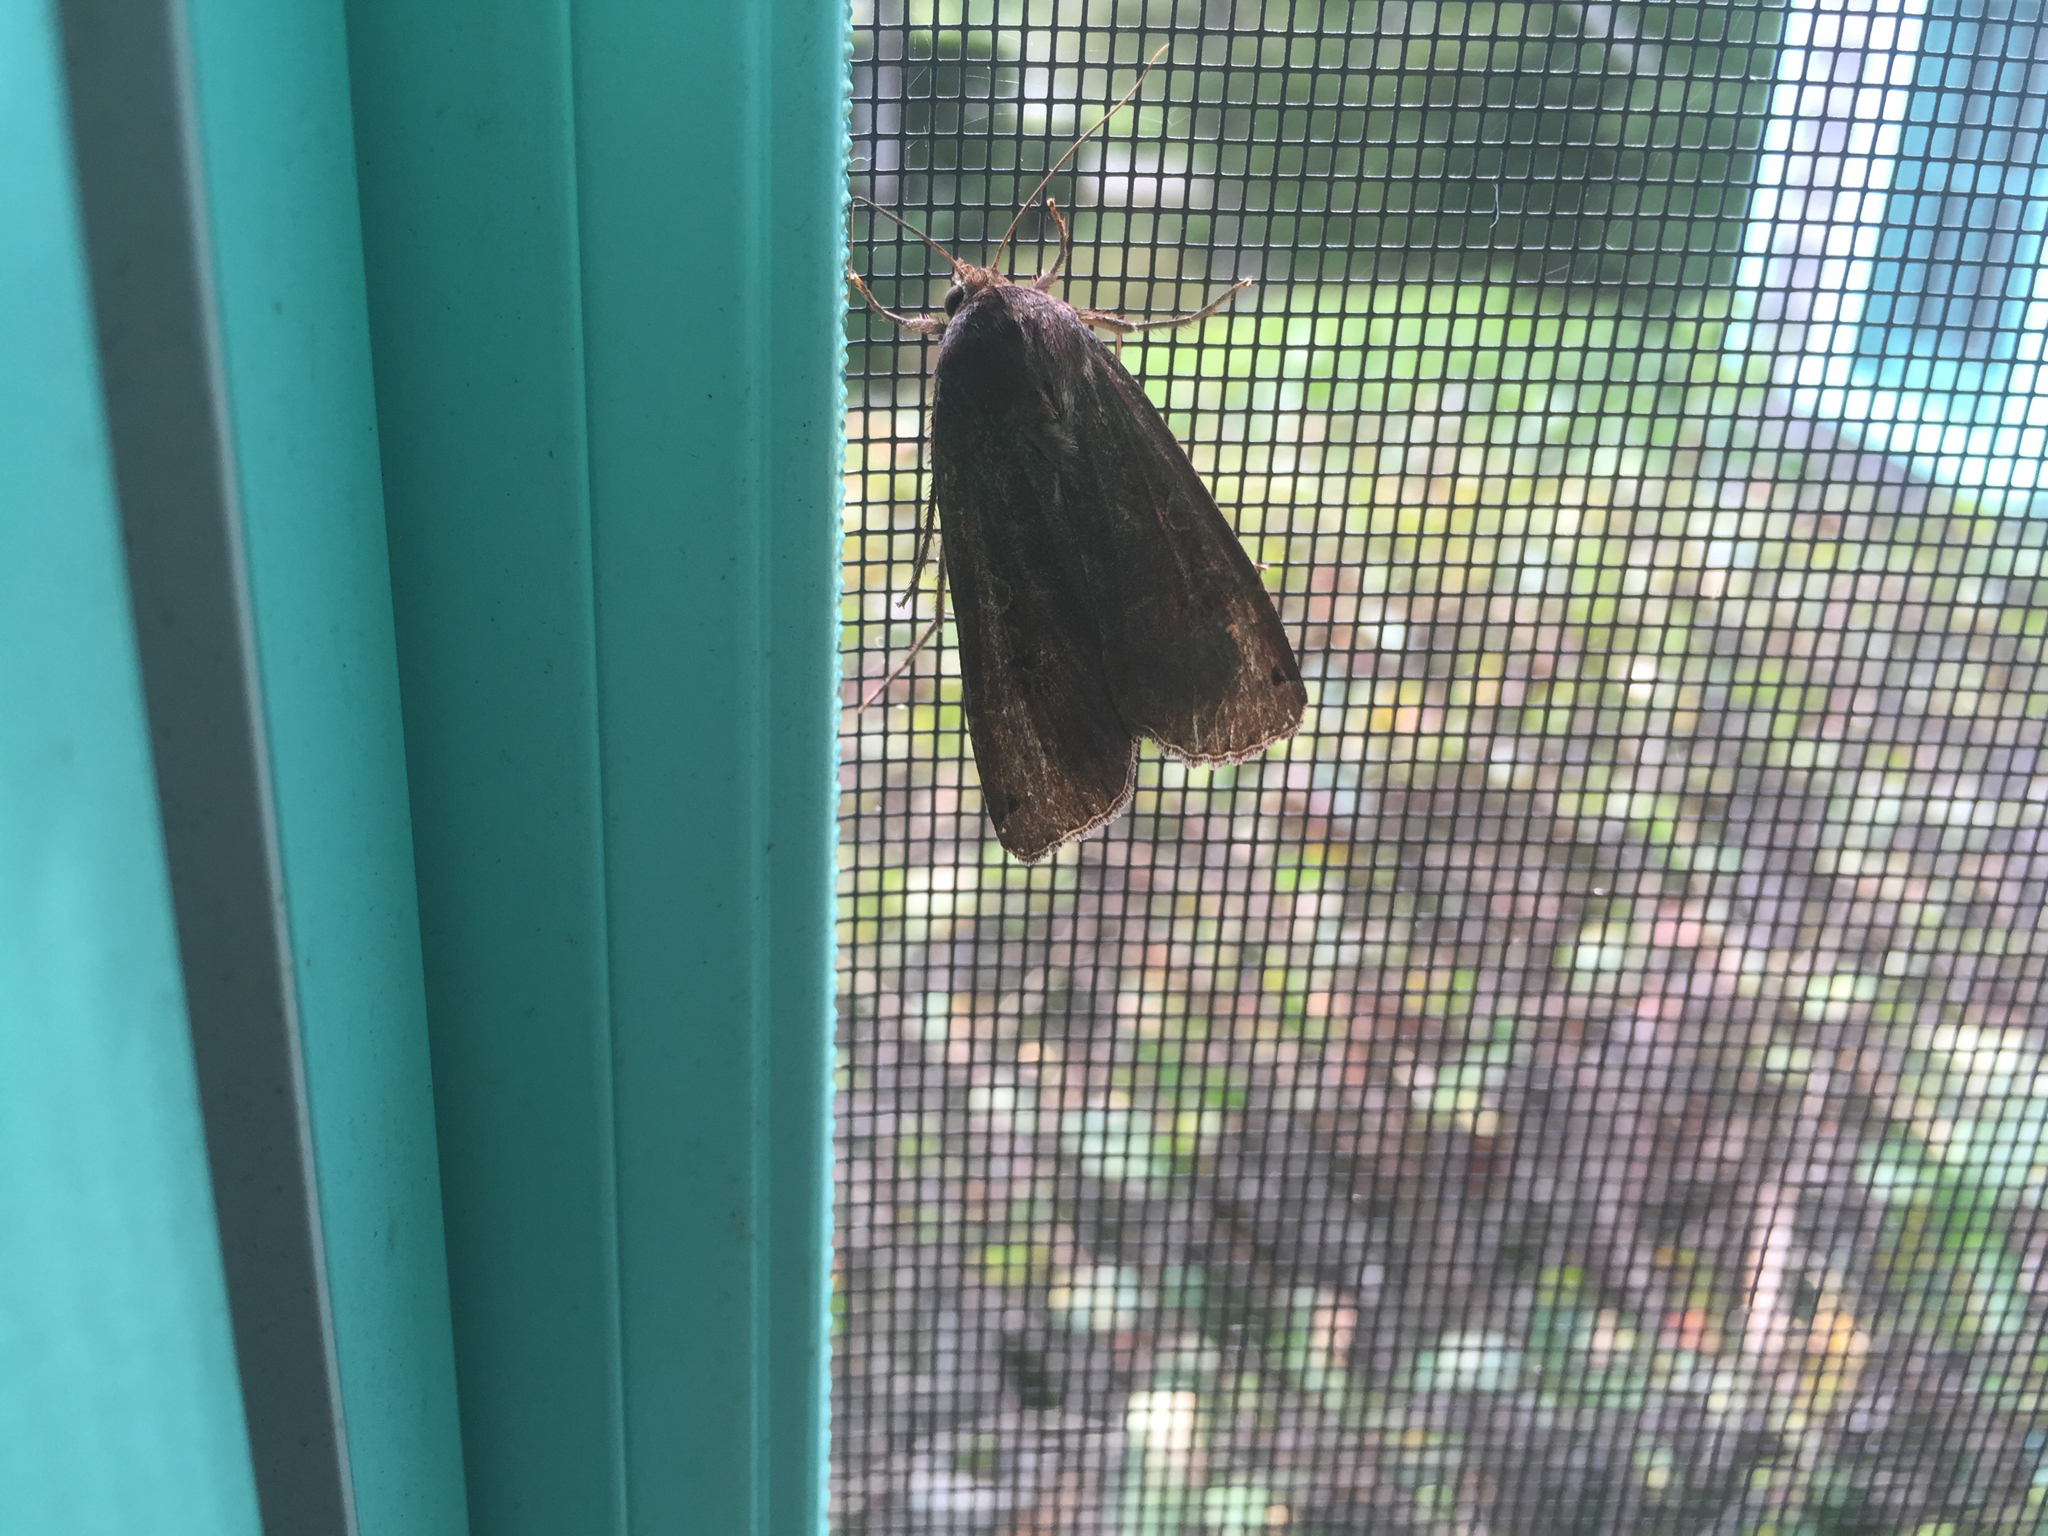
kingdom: Animalia
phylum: Arthropoda
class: Insecta
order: Lepidoptera
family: Noctuidae
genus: Noctua
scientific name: Noctua pronuba
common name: Large yellow underwing
